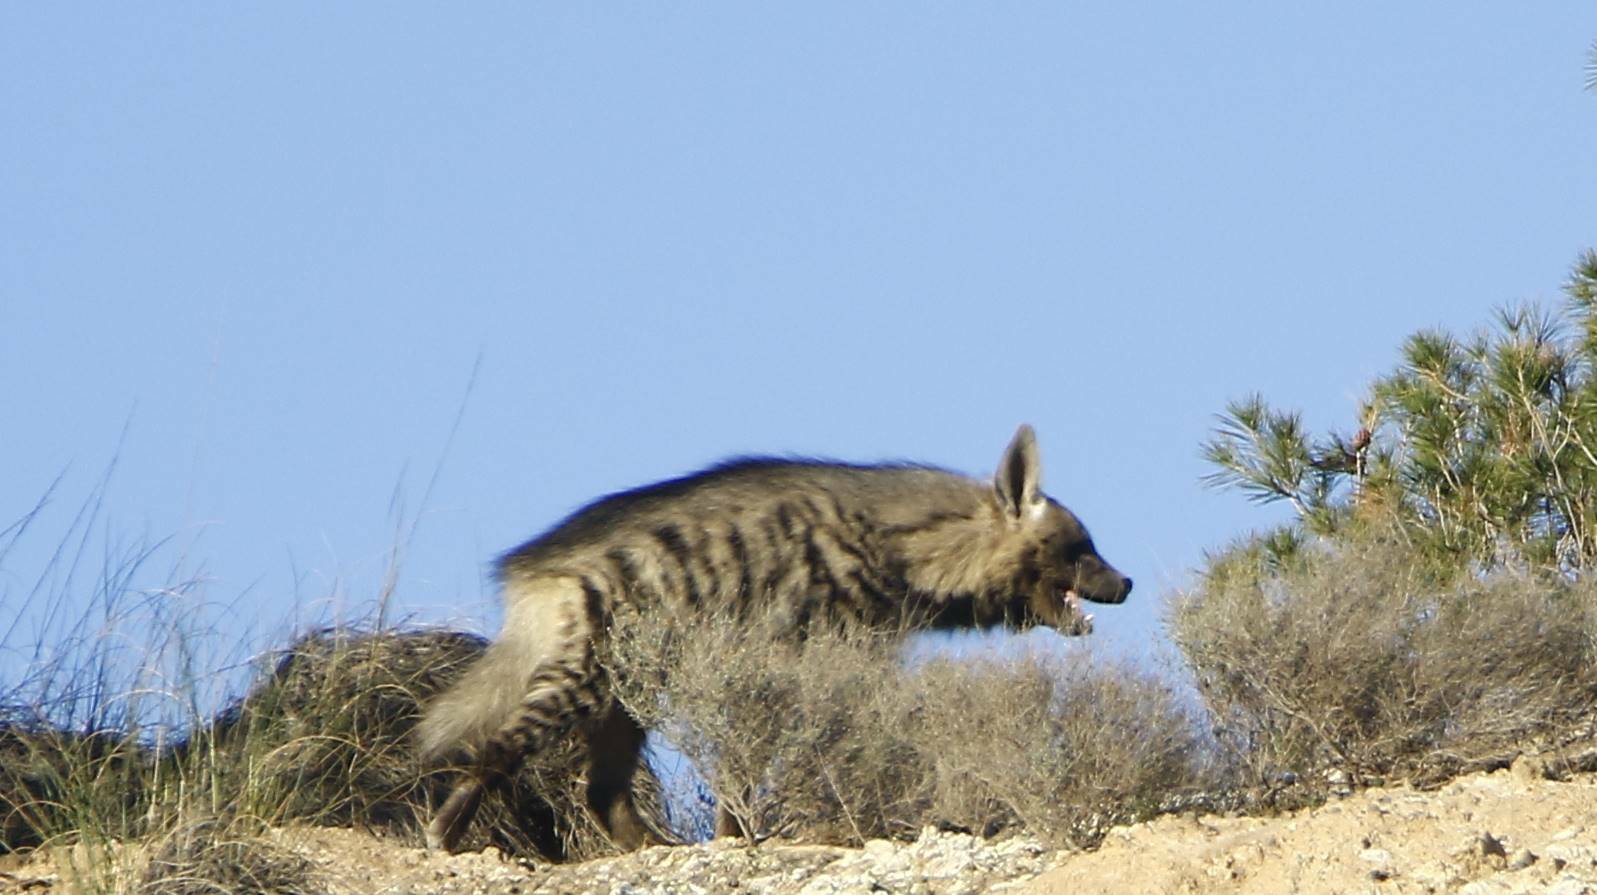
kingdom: Animalia
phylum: Chordata
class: Mammalia
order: Carnivora
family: Hyaenidae
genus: Hyaena
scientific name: Hyaena hyaena
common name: Striped hyaena
